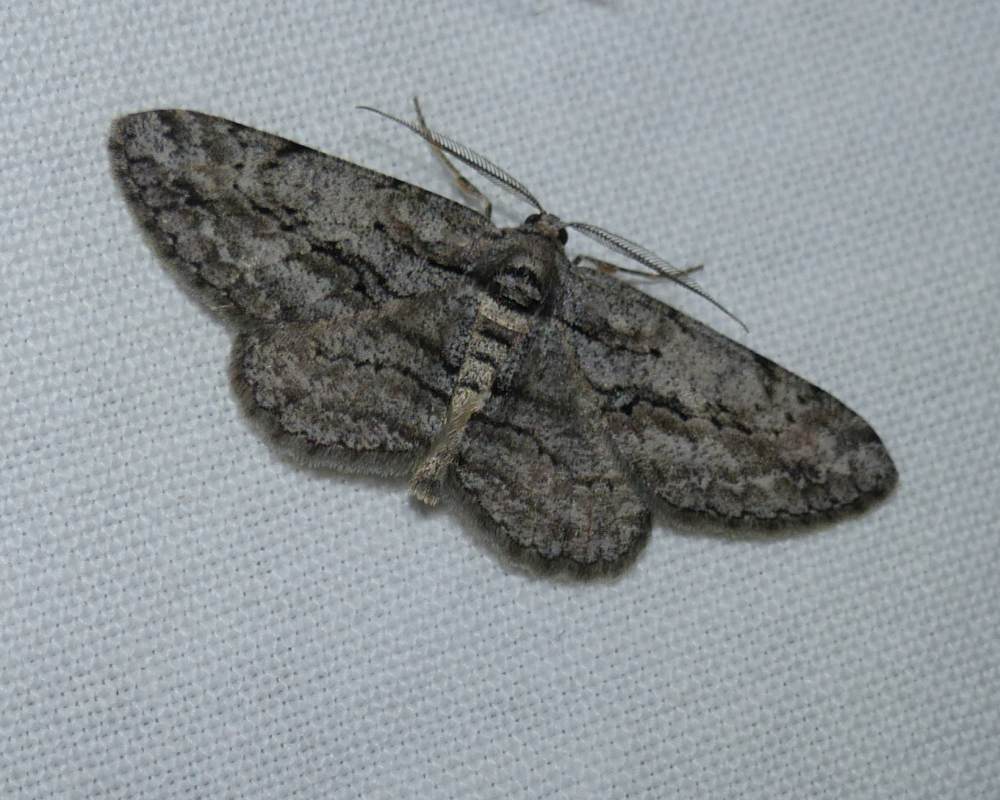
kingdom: Animalia
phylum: Arthropoda
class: Insecta
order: Lepidoptera
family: Geometridae
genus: Anavitrinella
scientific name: Anavitrinella pampinaria
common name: Common gray
